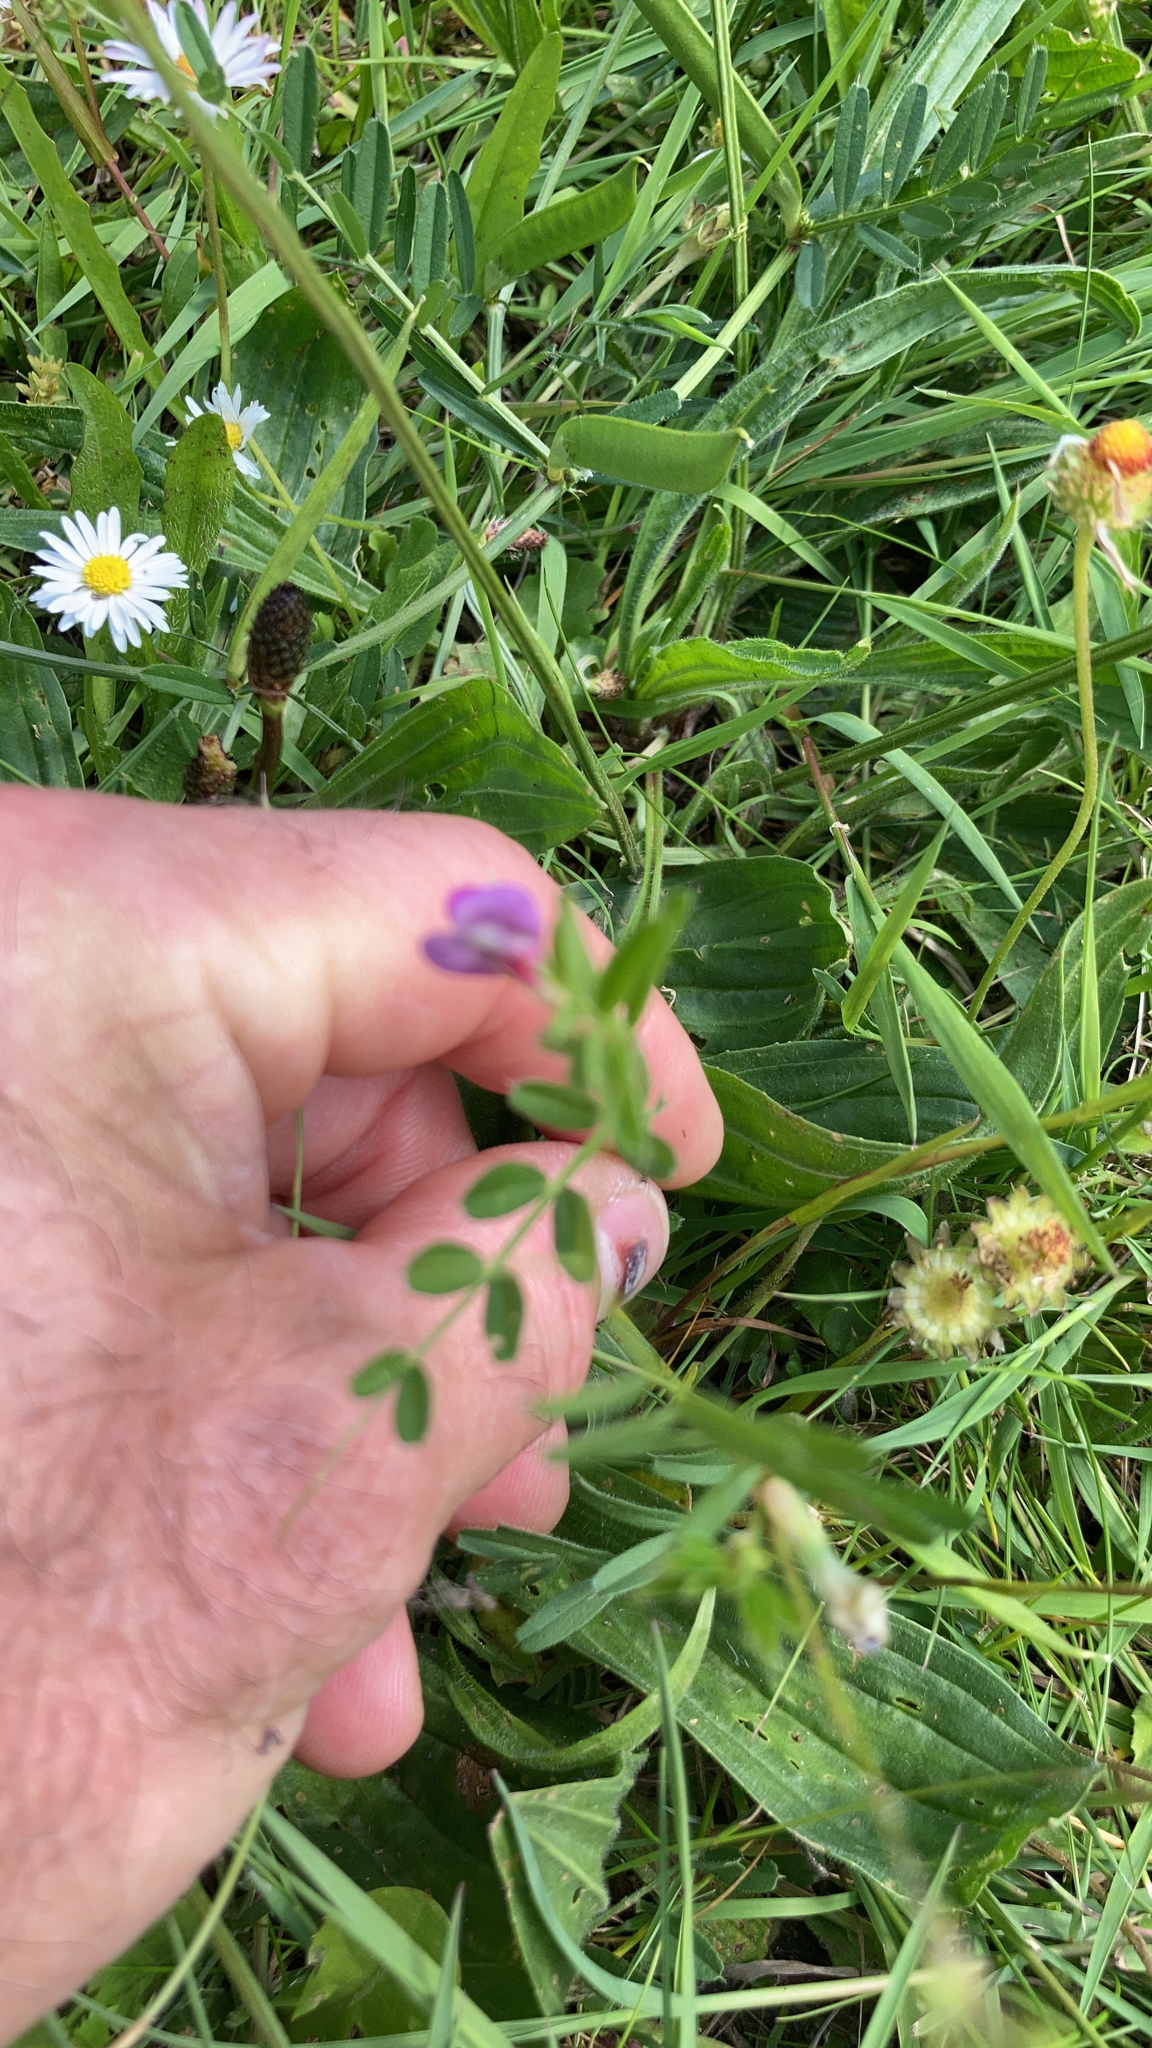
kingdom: Plantae
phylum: Tracheophyta
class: Magnoliopsida
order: Fabales
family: Fabaceae
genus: Vicia
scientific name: Vicia sativa
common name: Garden vetch
